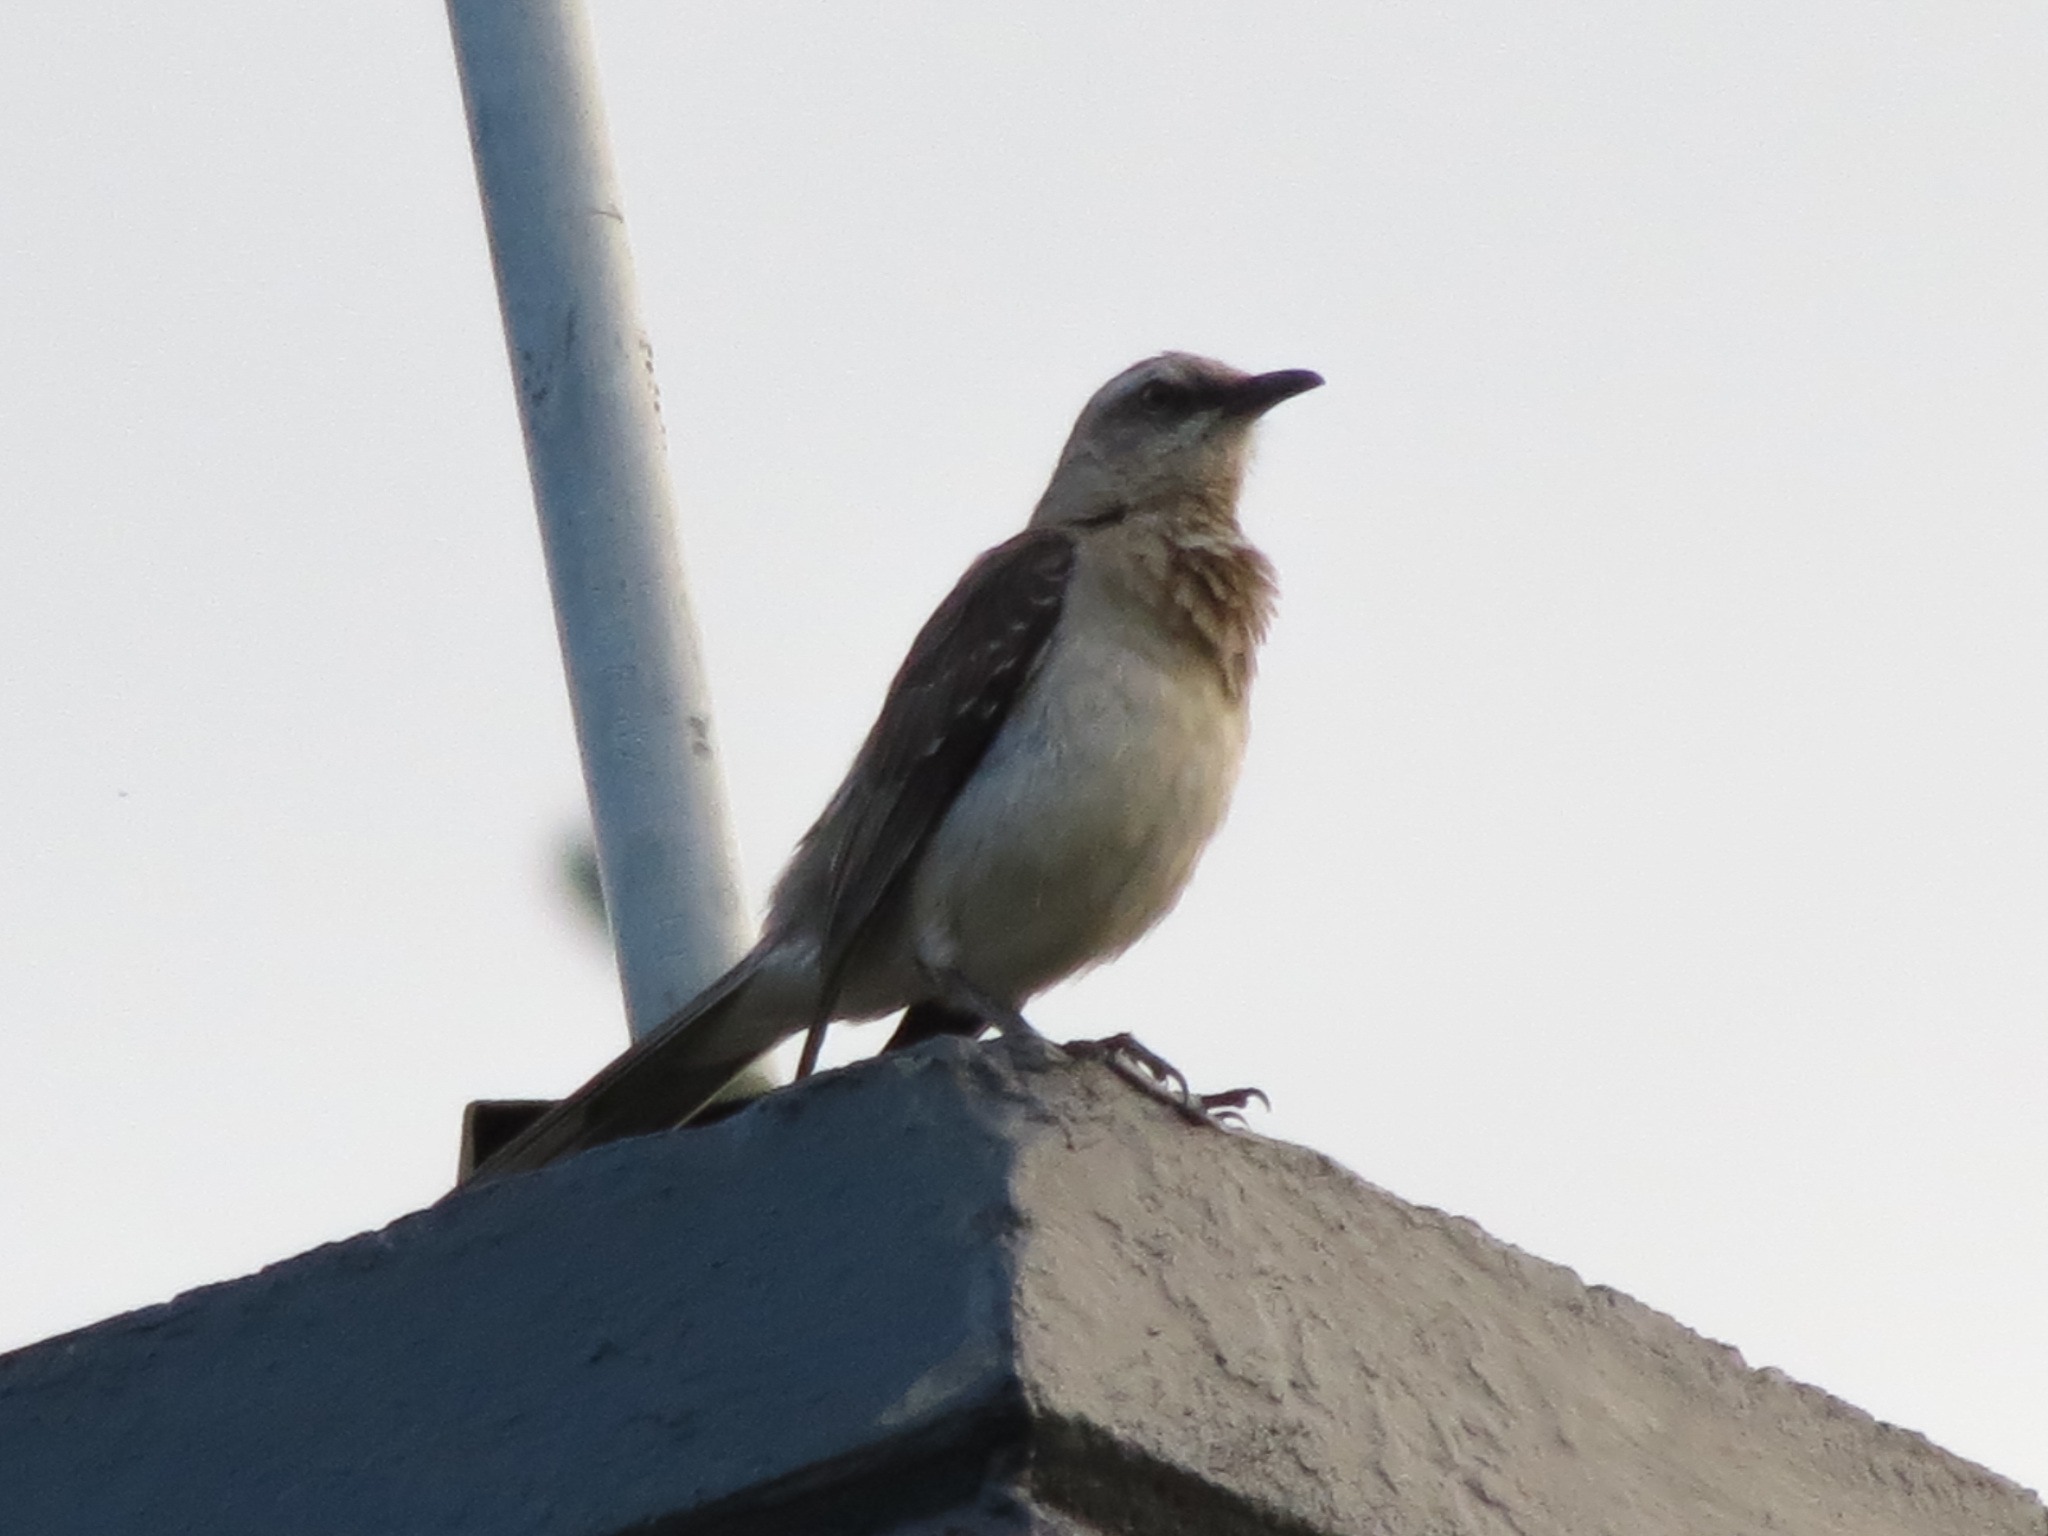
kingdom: Animalia
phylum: Chordata
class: Aves
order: Passeriformes
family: Mimidae
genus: Mimus
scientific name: Mimus gilvus
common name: Tropical mockingbird
